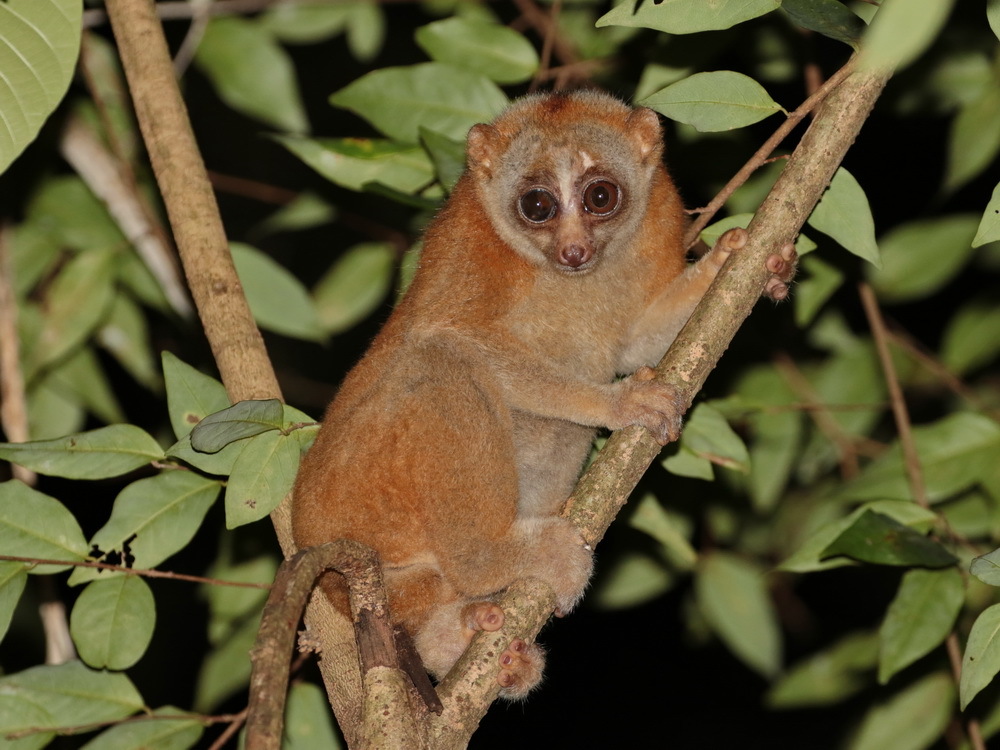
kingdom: Animalia
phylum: Chordata
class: Mammalia
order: Primates
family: Lorisidae
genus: Nycticebus
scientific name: Nycticebus bengalensis
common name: Bengal slow loris
